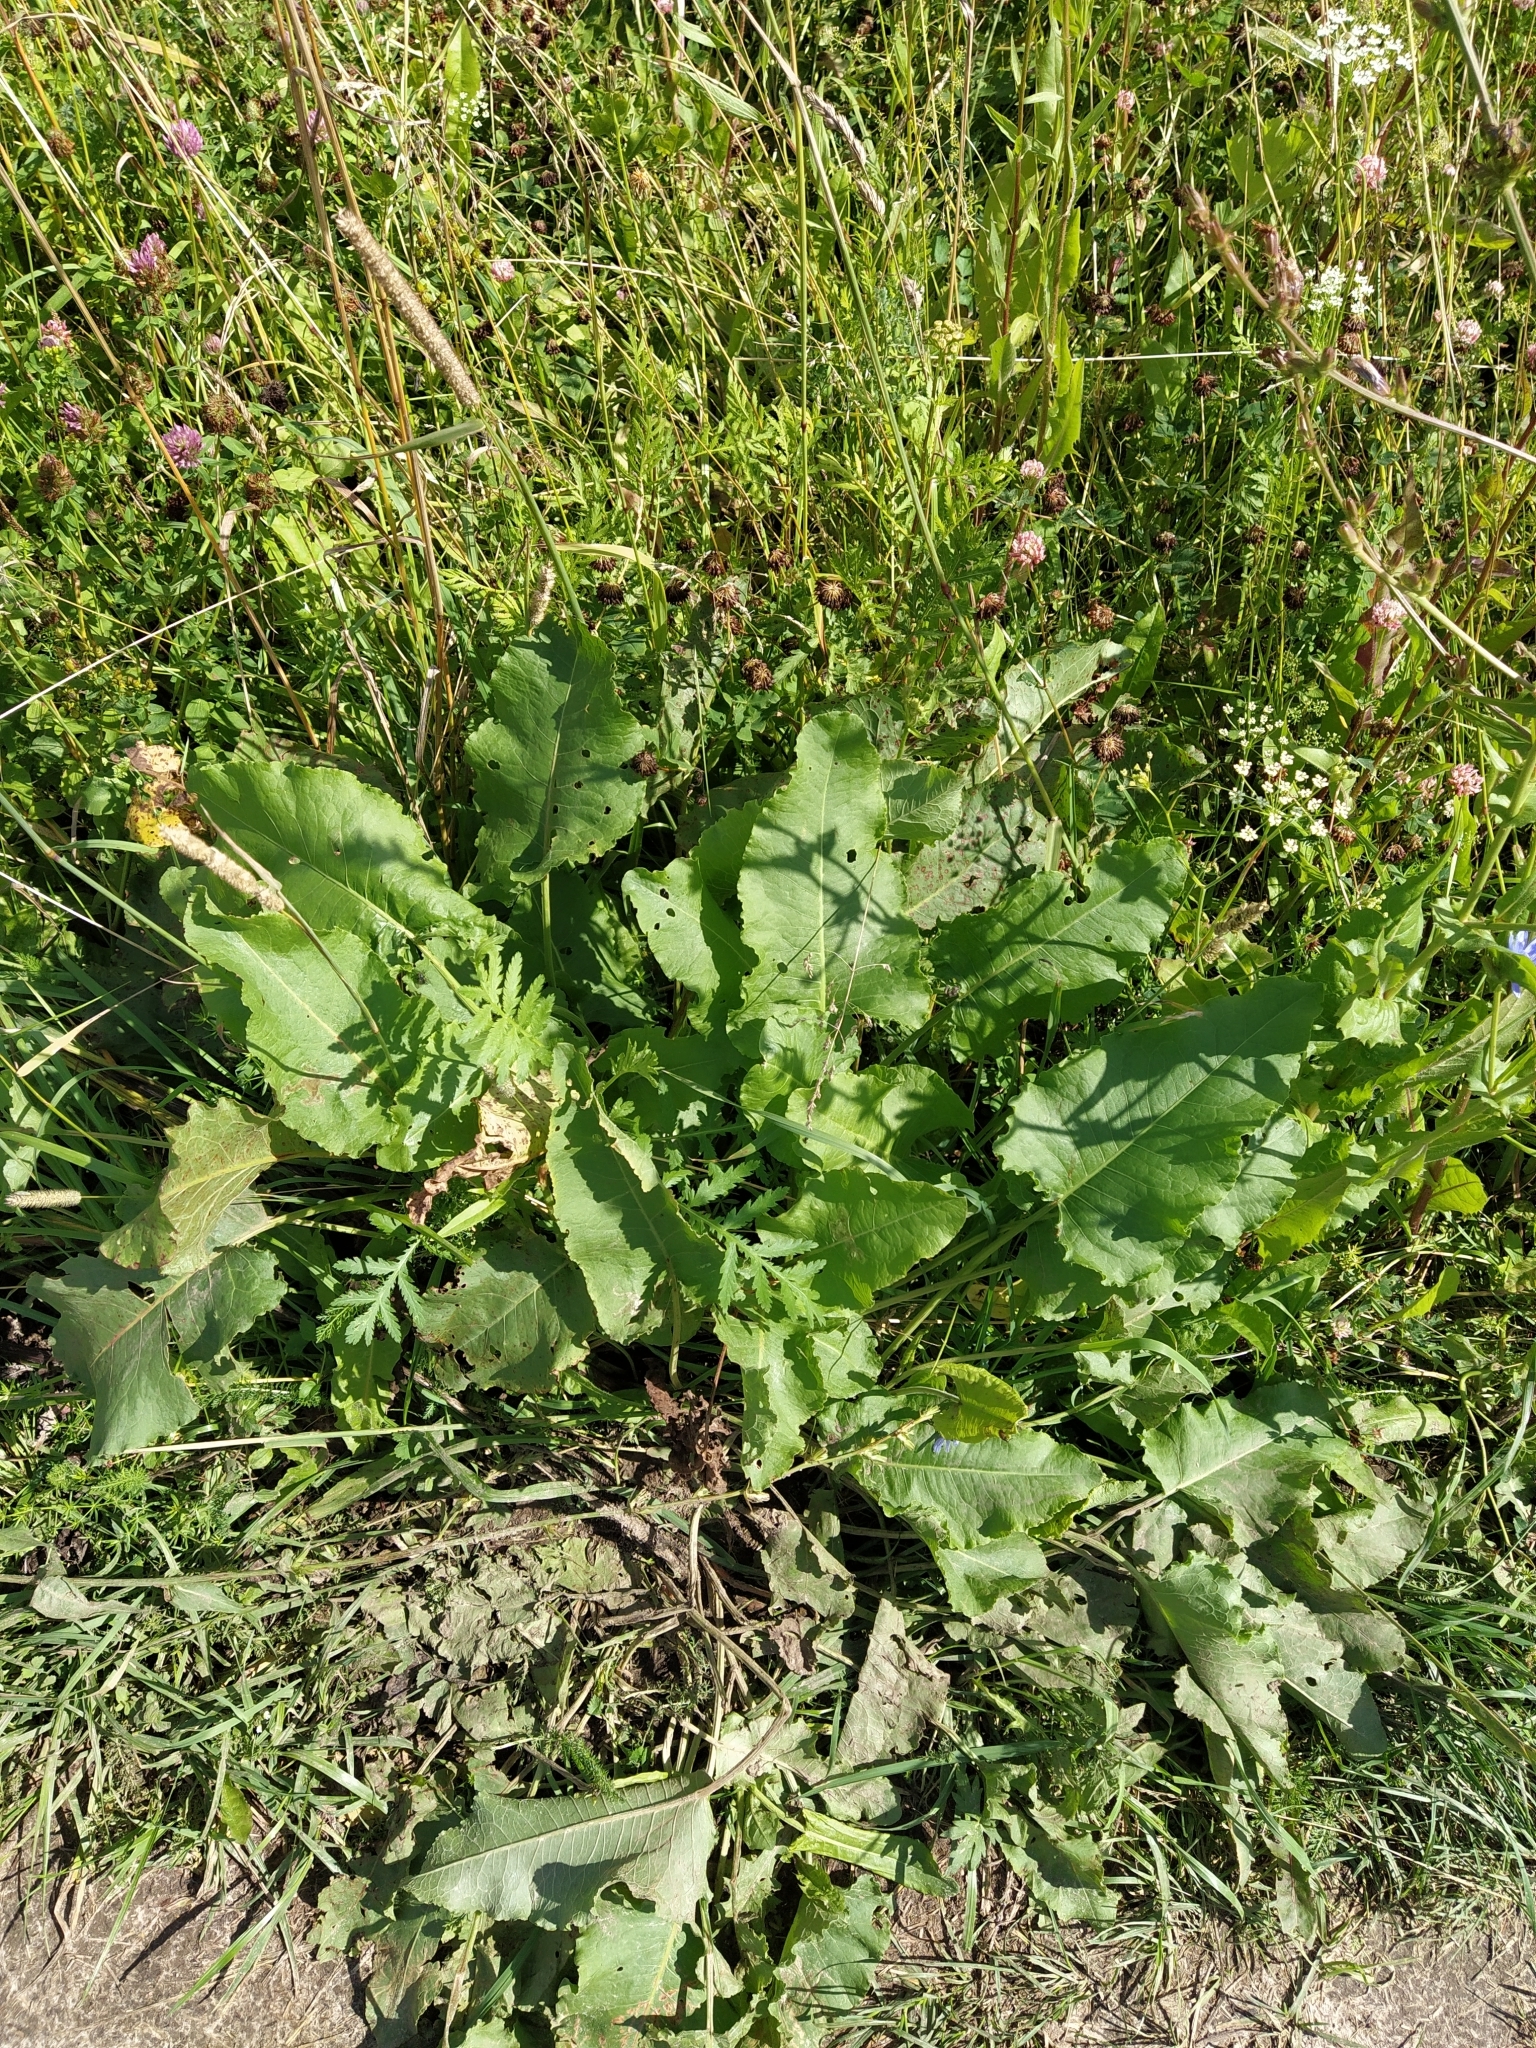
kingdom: Plantae
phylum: Tracheophyta
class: Magnoliopsida
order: Caryophyllales
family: Polygonaceae
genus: Rumex
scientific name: Rumex confertus
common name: Russian dock
